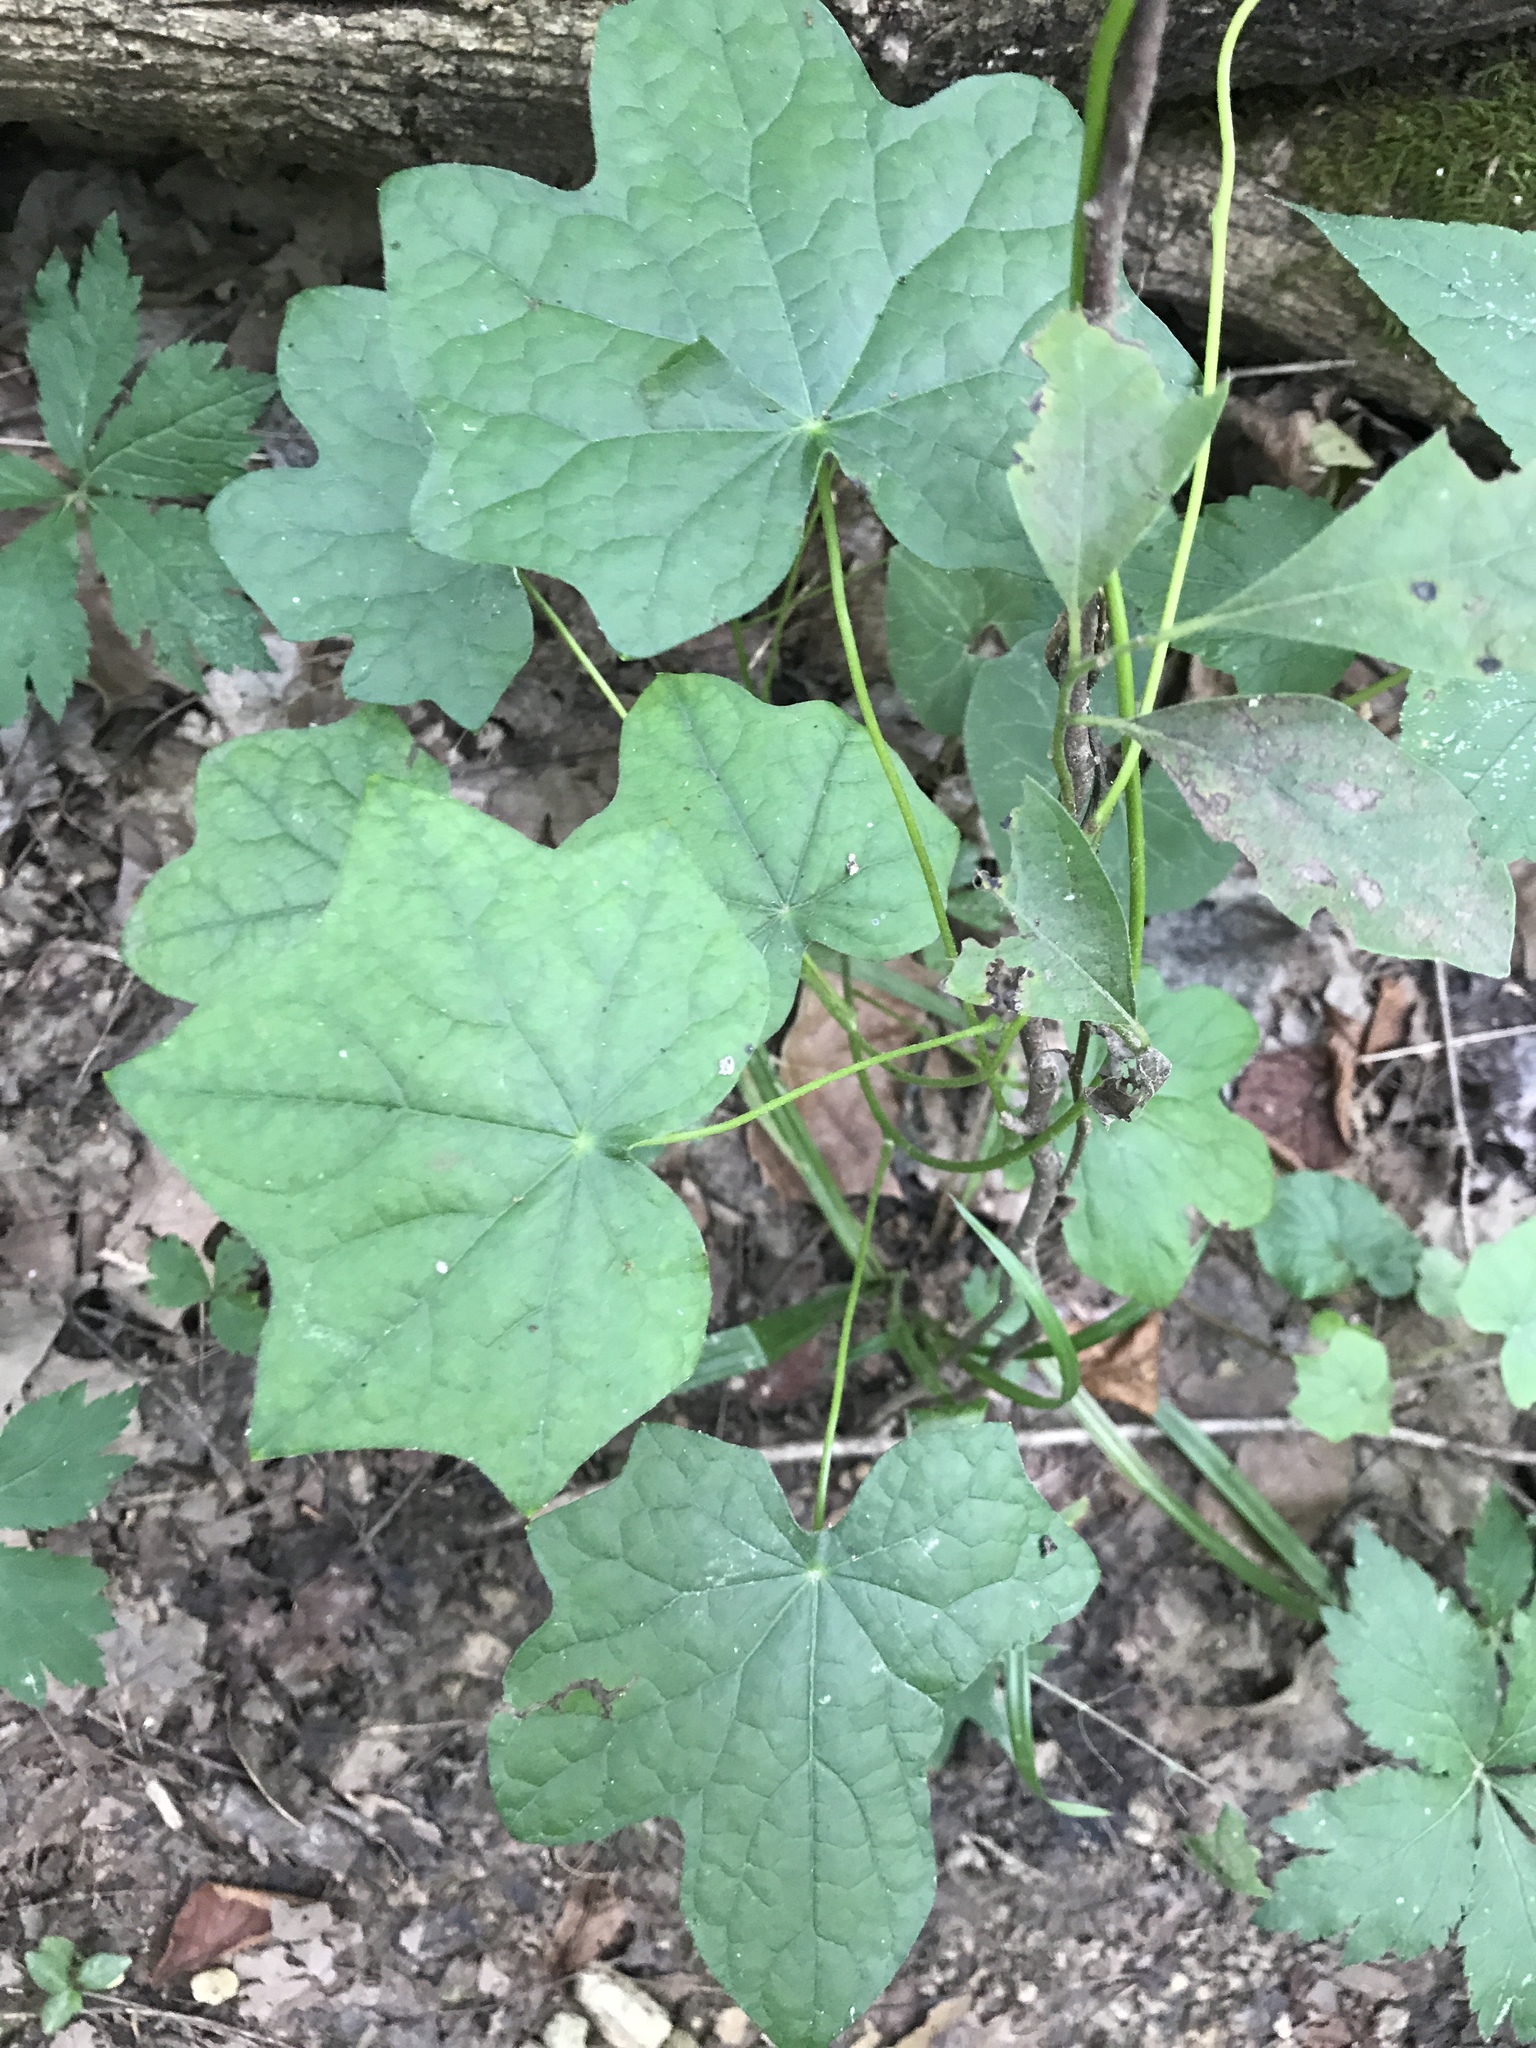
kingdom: Plantae
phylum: Tracheophyta
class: Magnoliopsida
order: Ranunculales
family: Menispermaceae
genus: Menispermum
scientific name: Menispermum canadense
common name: Moonseed
